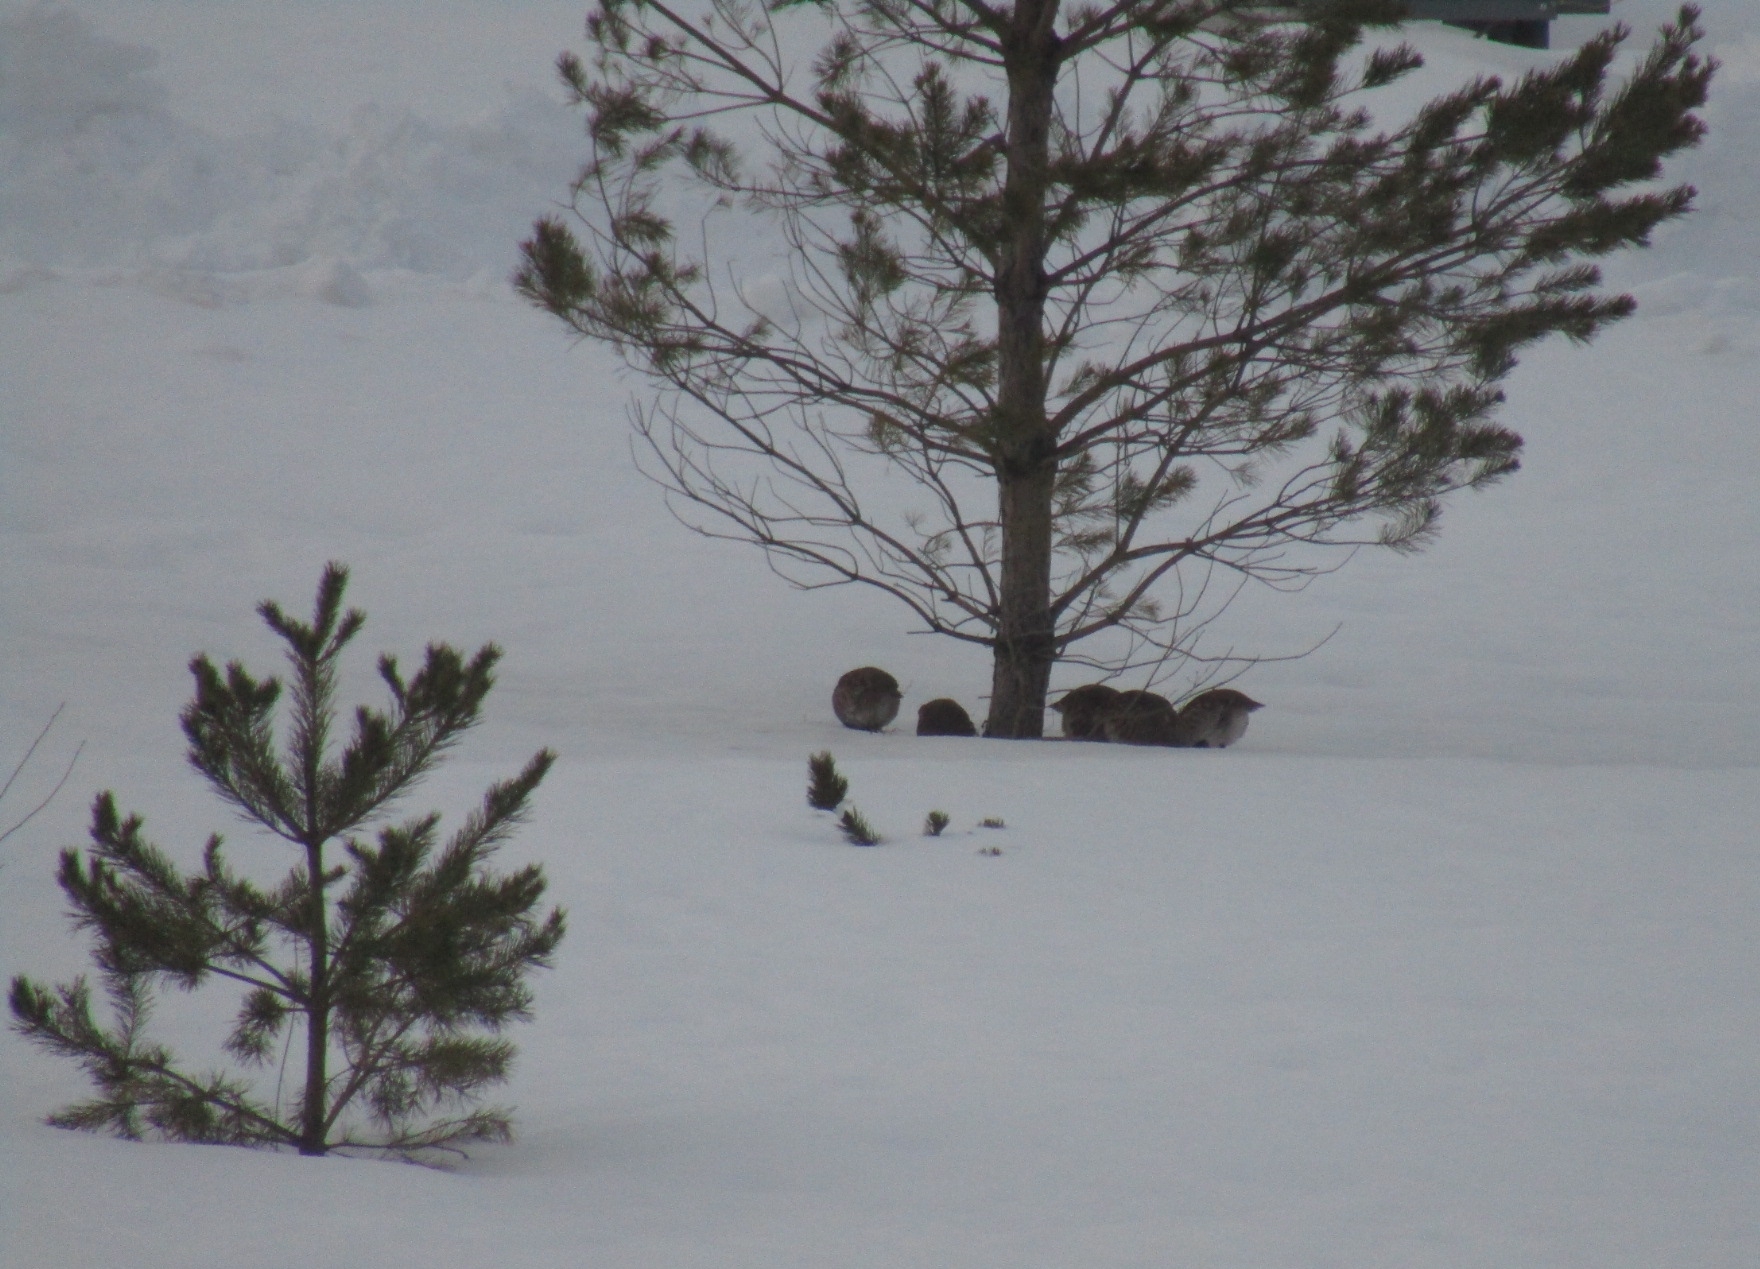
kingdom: Animalia
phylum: Chordata
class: Aves
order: Galliformes
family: Phasianidae
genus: Perdix
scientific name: Perdix perdix
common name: Grey partridge
